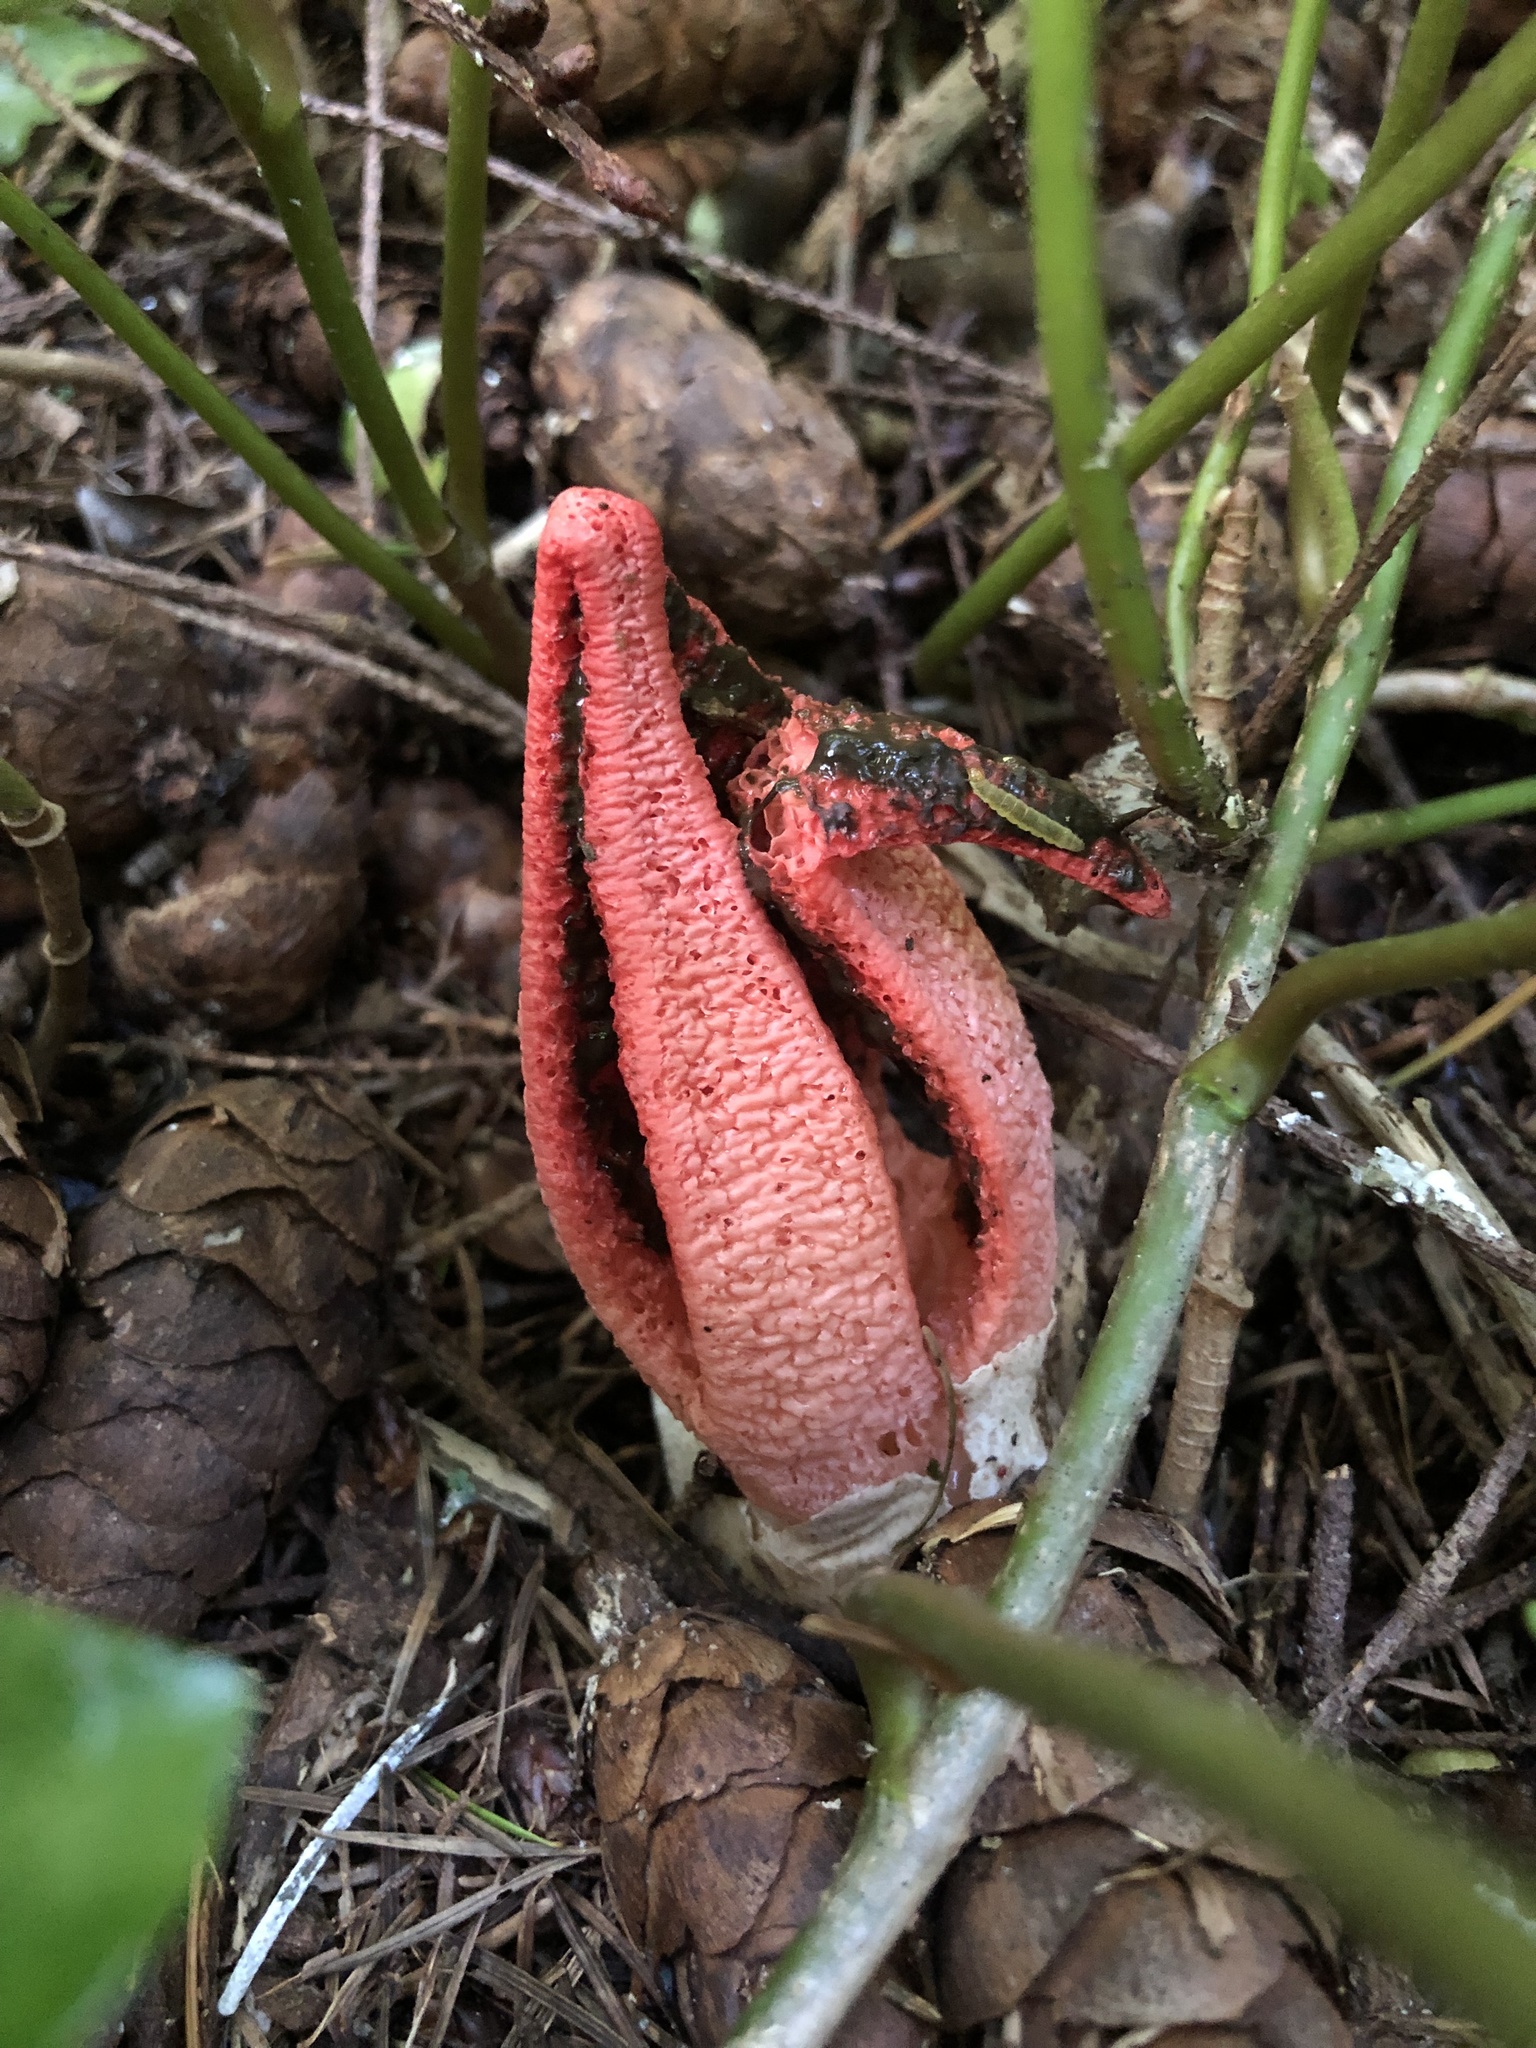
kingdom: Fungi
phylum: Basidiomycota
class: Agaricomycetes
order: Phallales
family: Phallaceae
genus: Clathrus
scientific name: Clathrus archeri
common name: Devil's fingers
